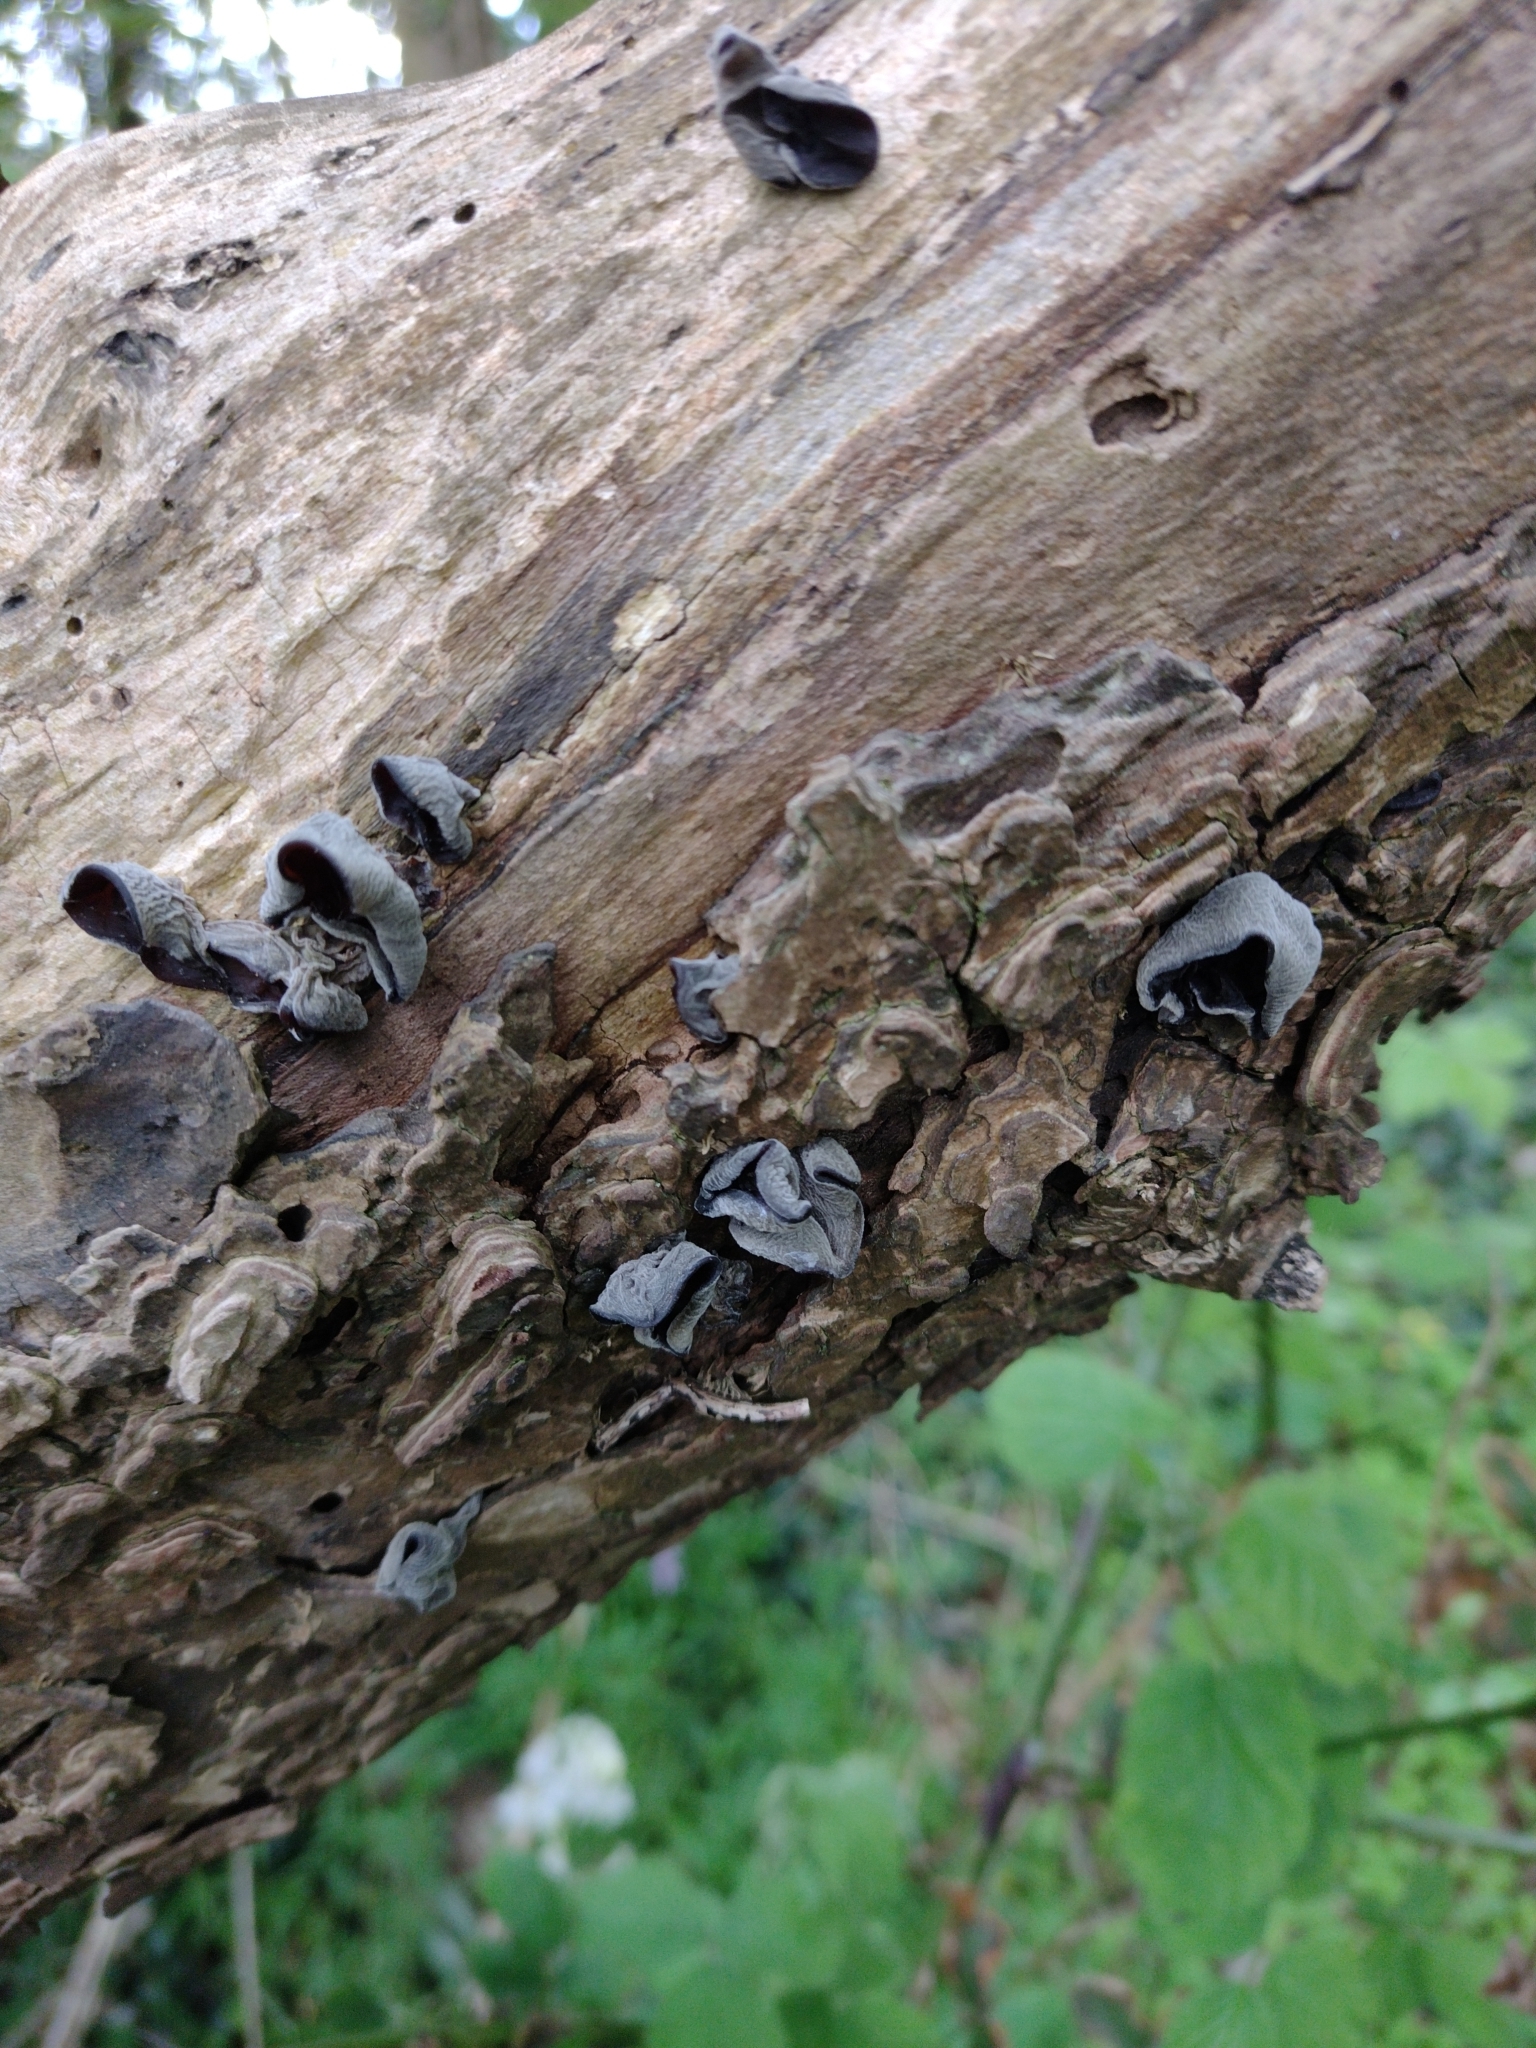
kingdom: Fungi
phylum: Basidiomycota
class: Agaricomycetes
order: Auriculariales
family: Auriculariaceae
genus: Auricularia
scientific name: Auricularia auricula-judae
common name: Jelly ear
